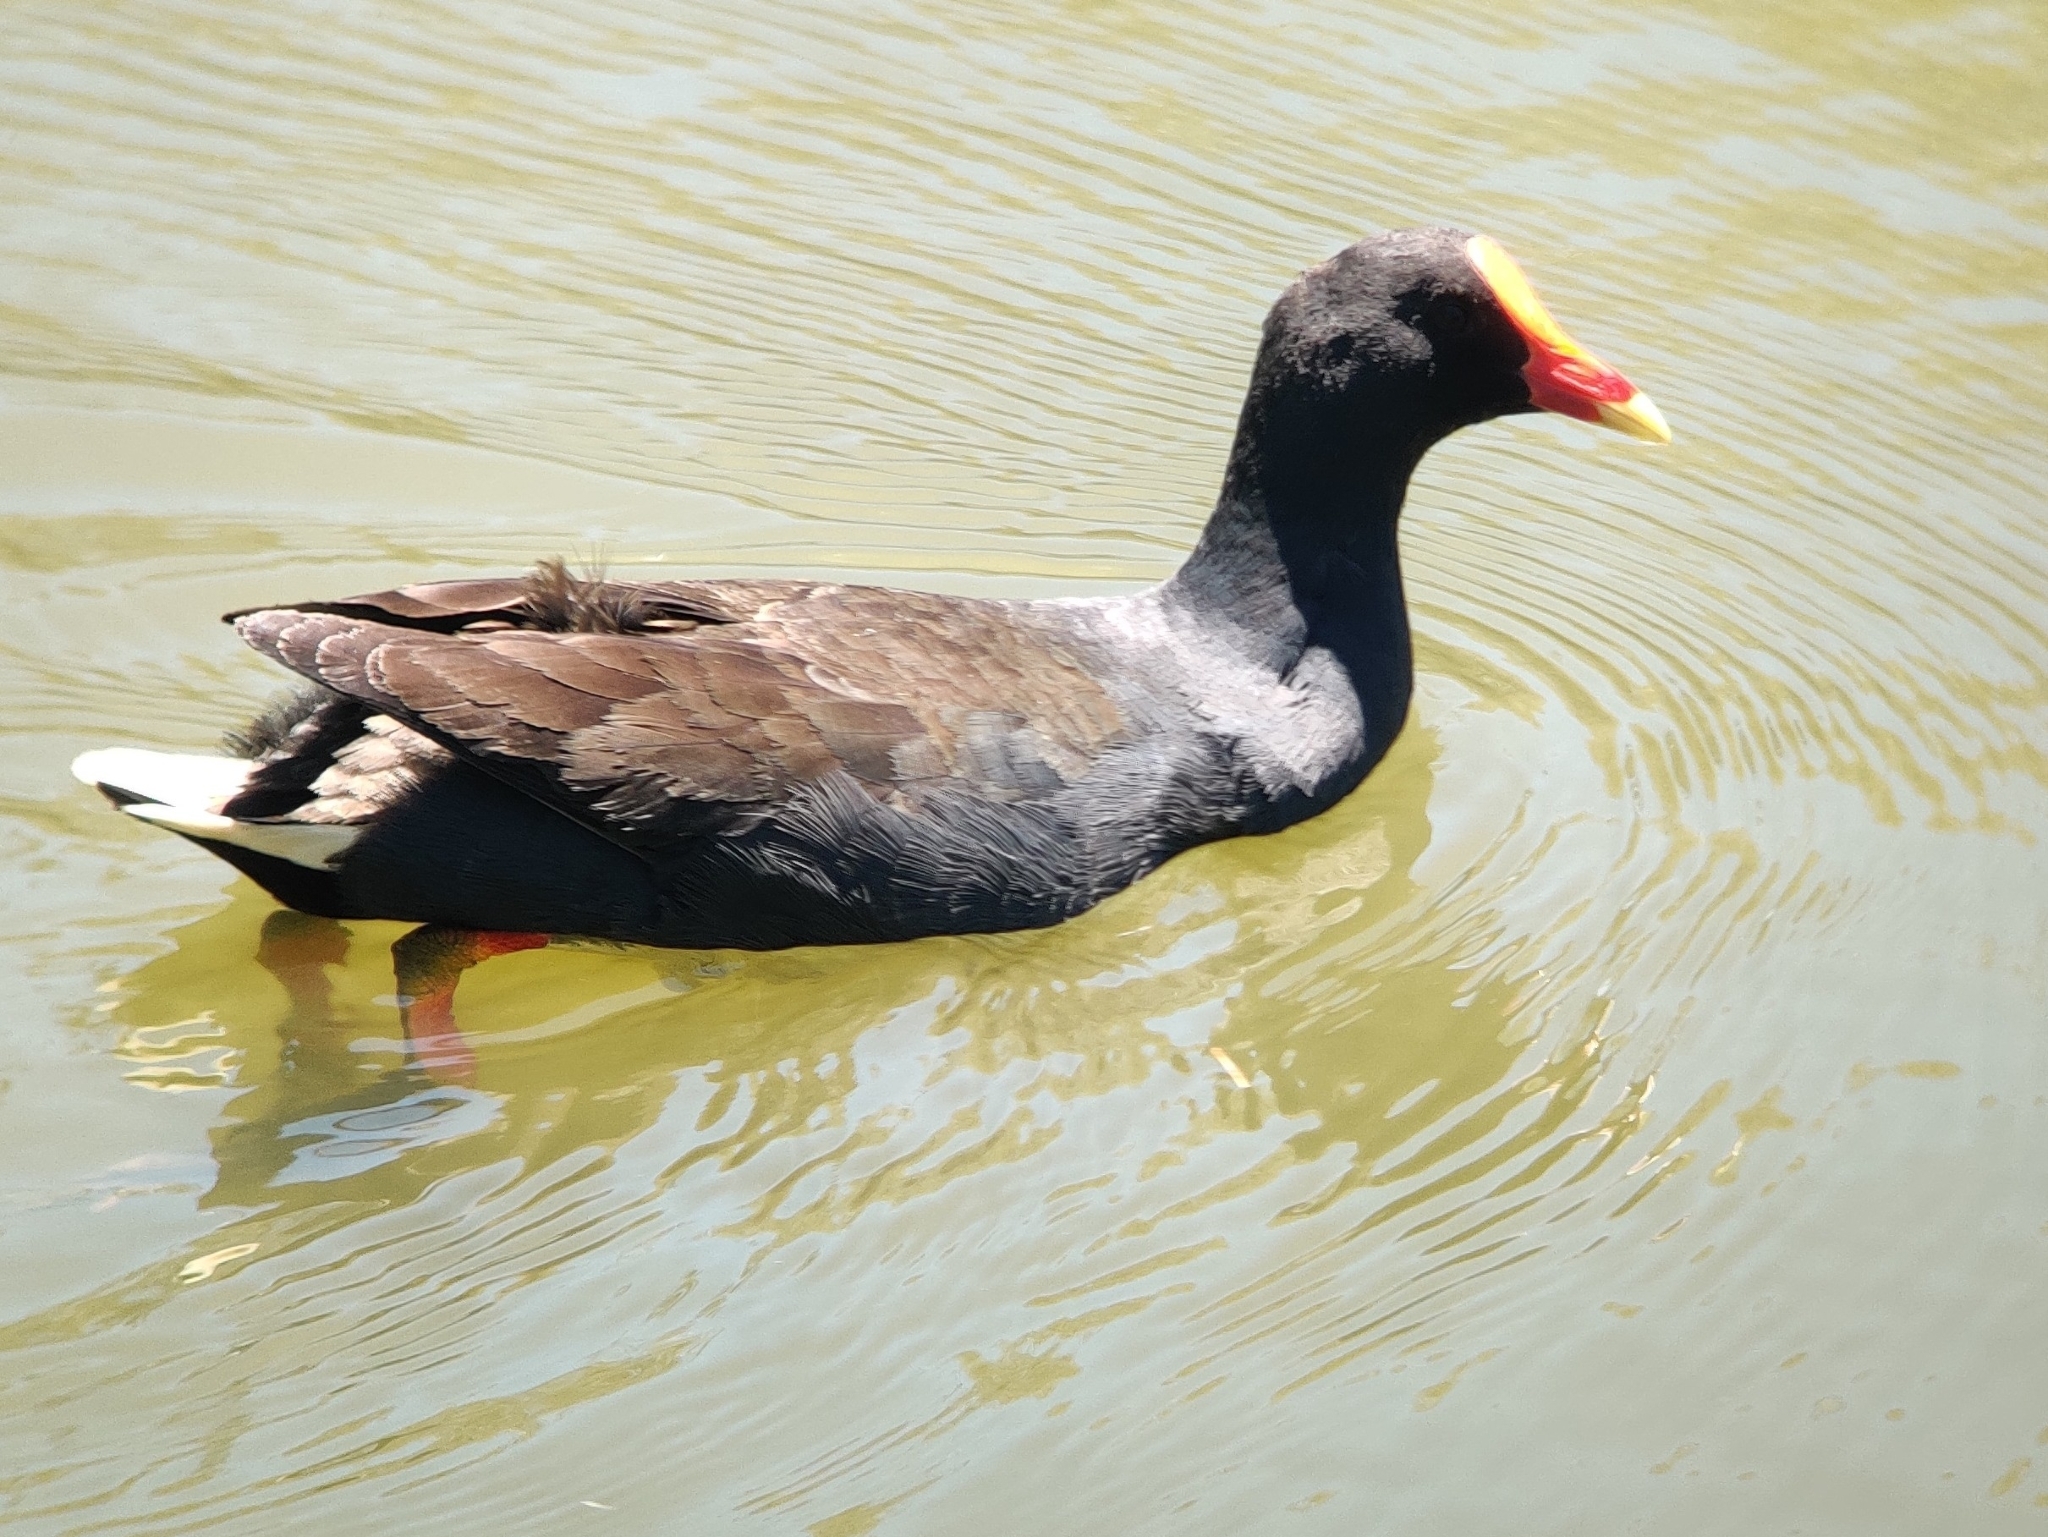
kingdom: Animalia
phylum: Chordata
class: Aves
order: Gruiformes
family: Rallidae
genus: Gallinula
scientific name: Gallinula tenebrosa
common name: Dusky moorhen
